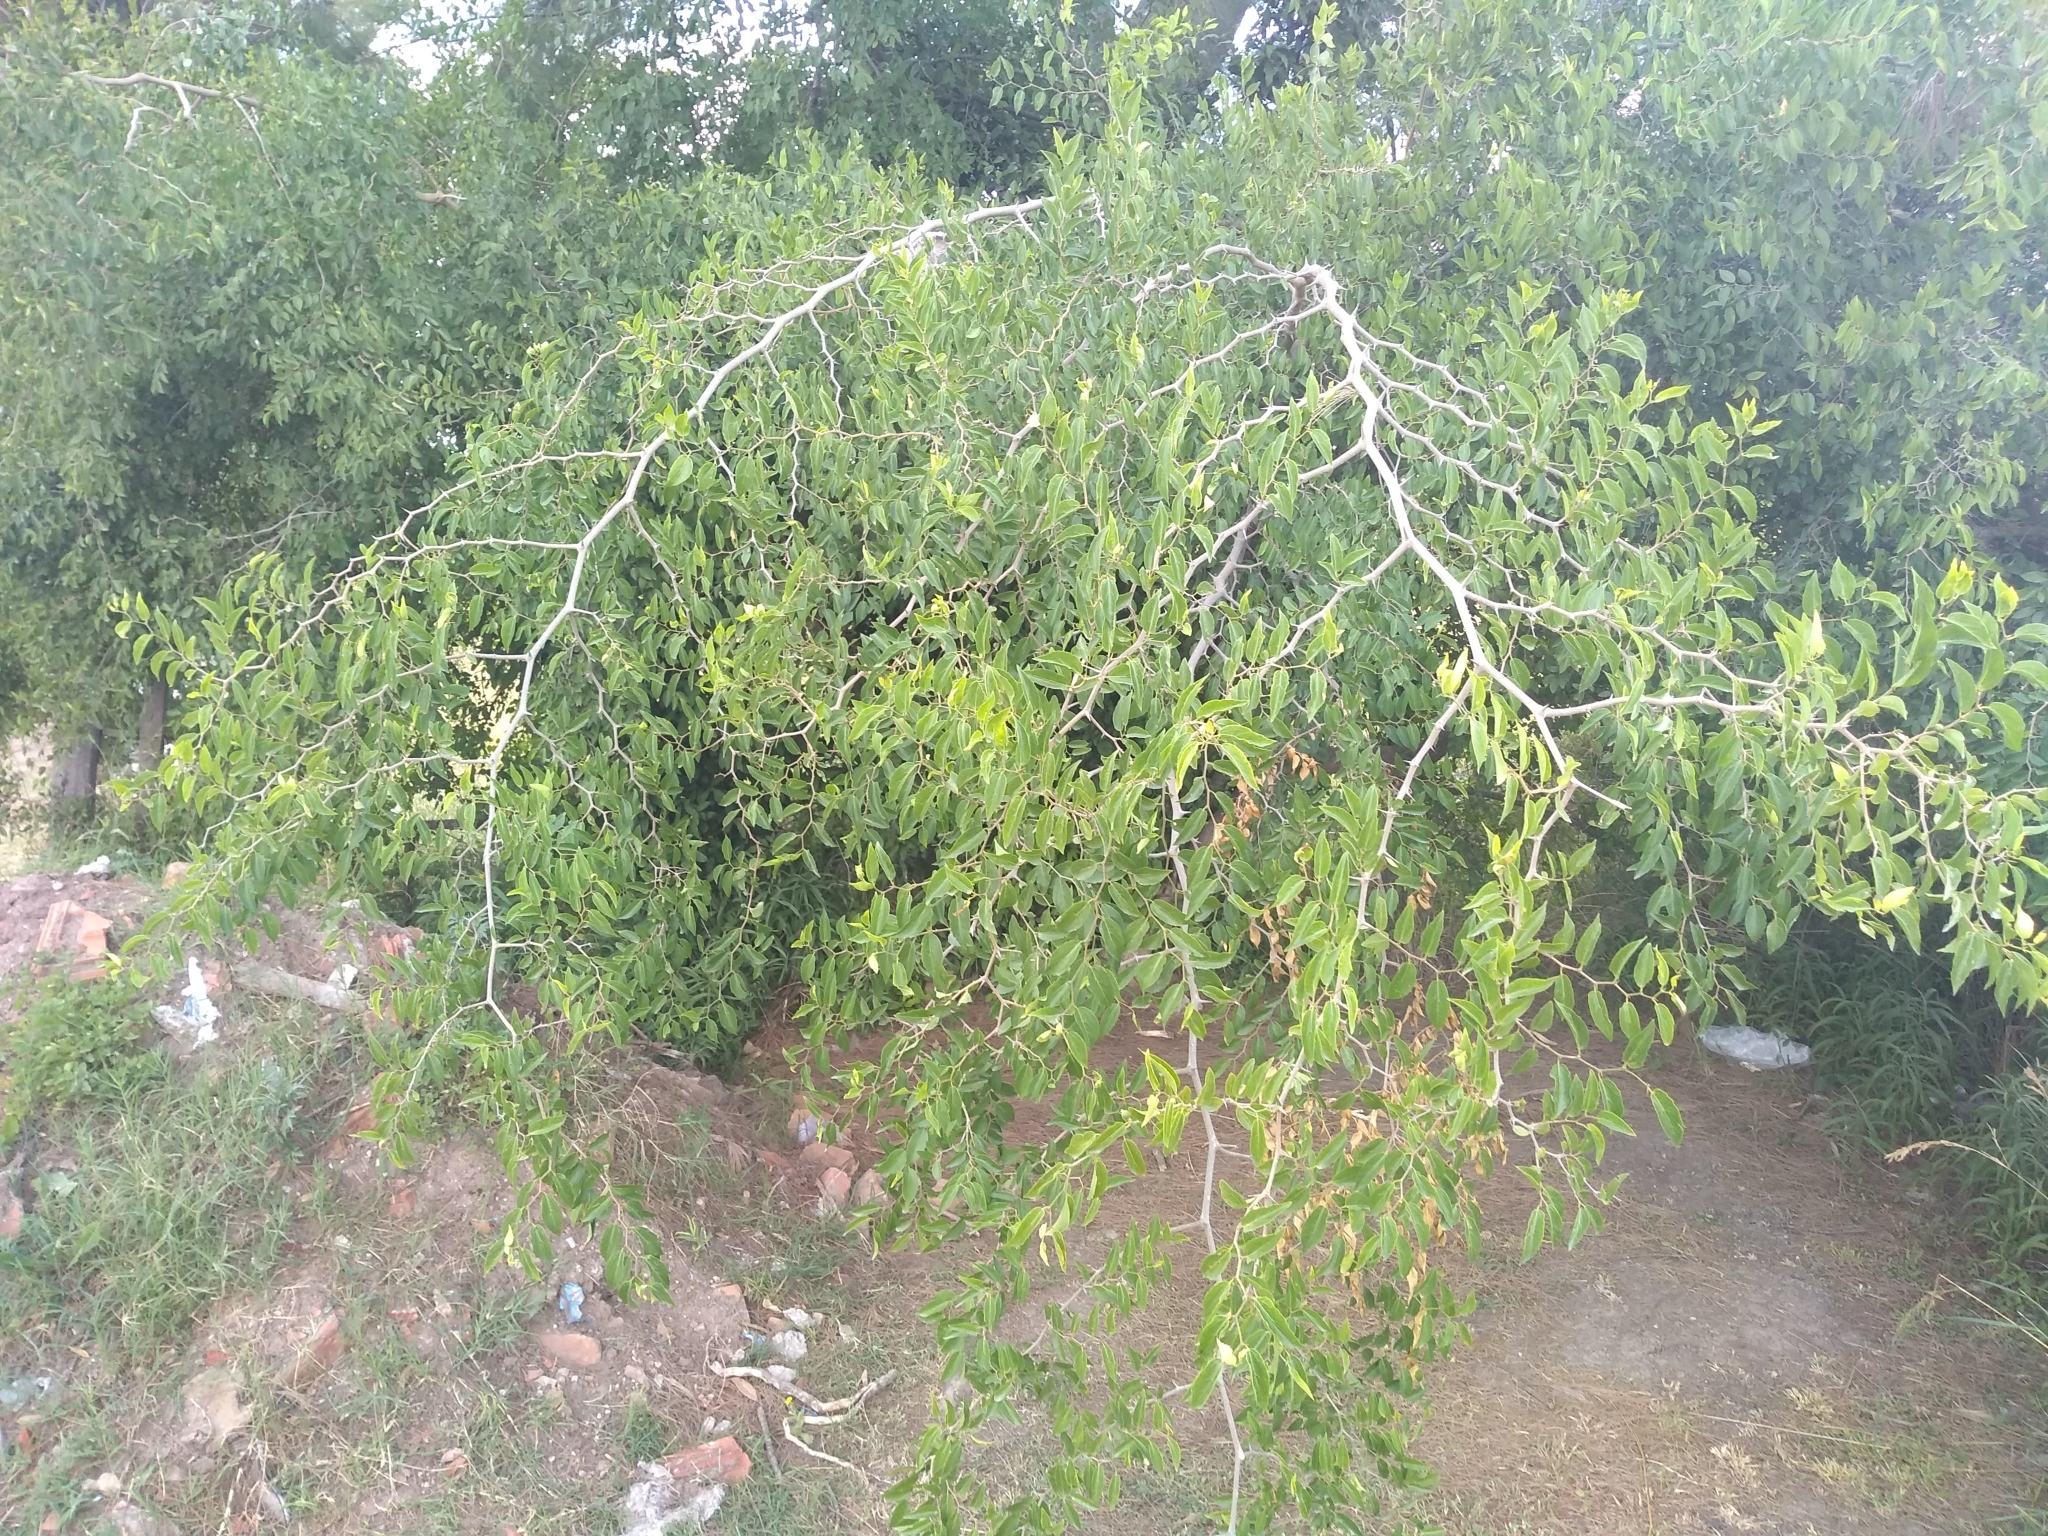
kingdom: Plantae
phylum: Tracheophyta
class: Magnoliopsida
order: Rosales
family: Cannabaceae
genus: Celtis
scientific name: Celtis tala
